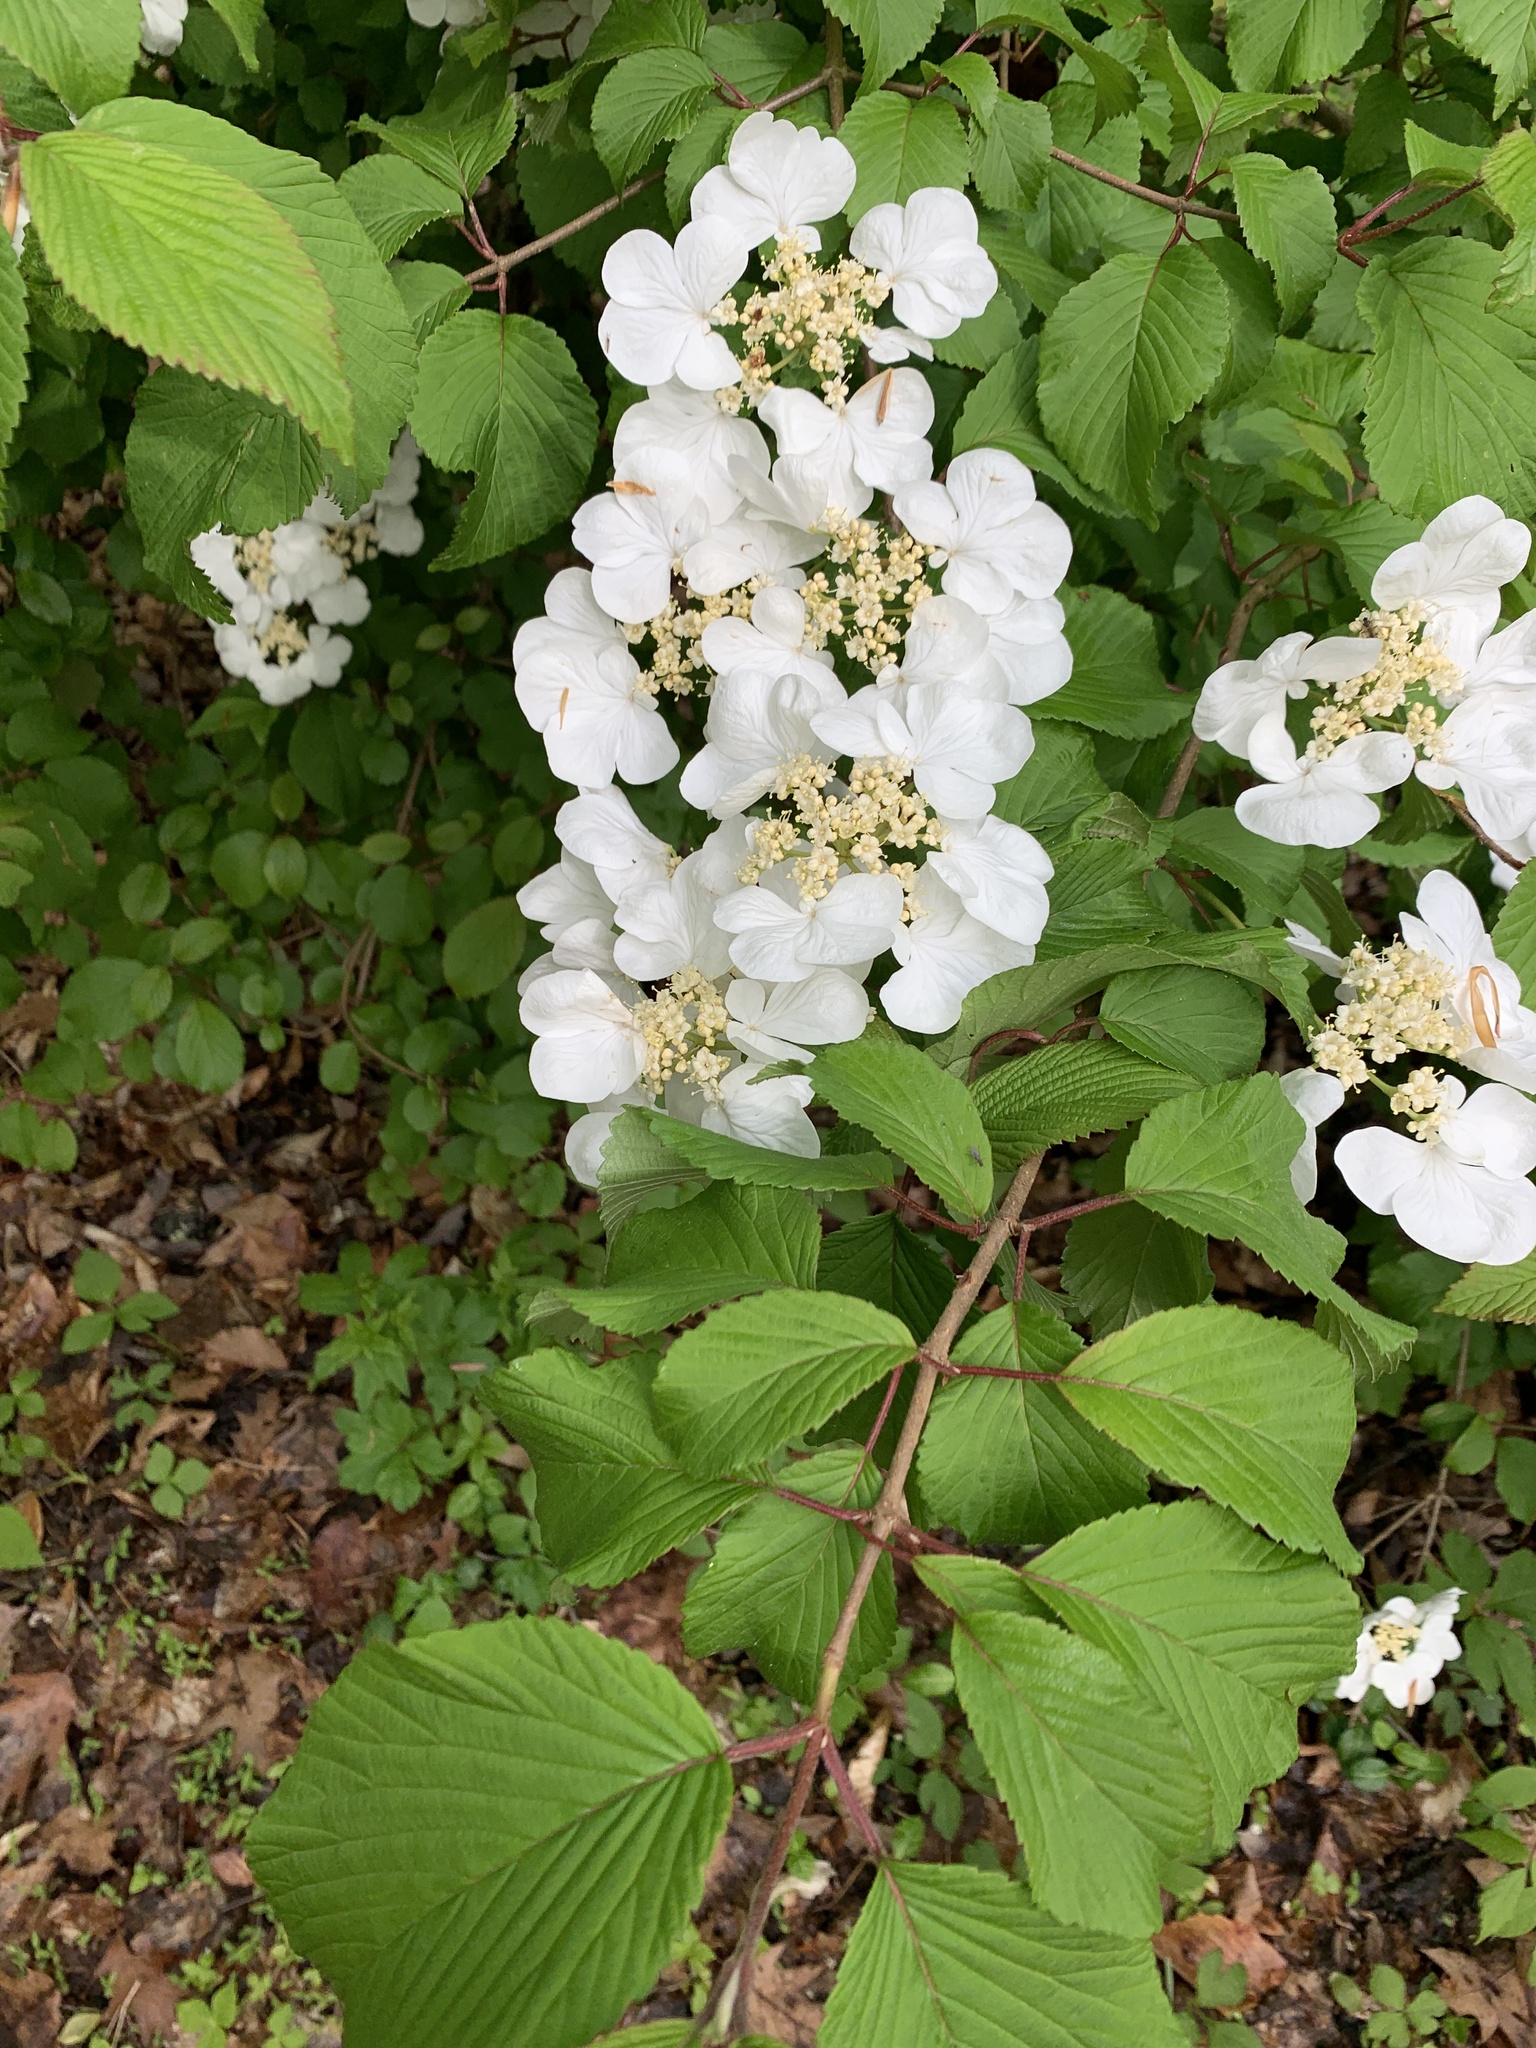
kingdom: Plantae
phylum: Tracheophyta
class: Magnoliopsida
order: Dipsacales
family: Viburnaceae
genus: Viburnum
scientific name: Viburnum plicatum
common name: Japanese snowball
